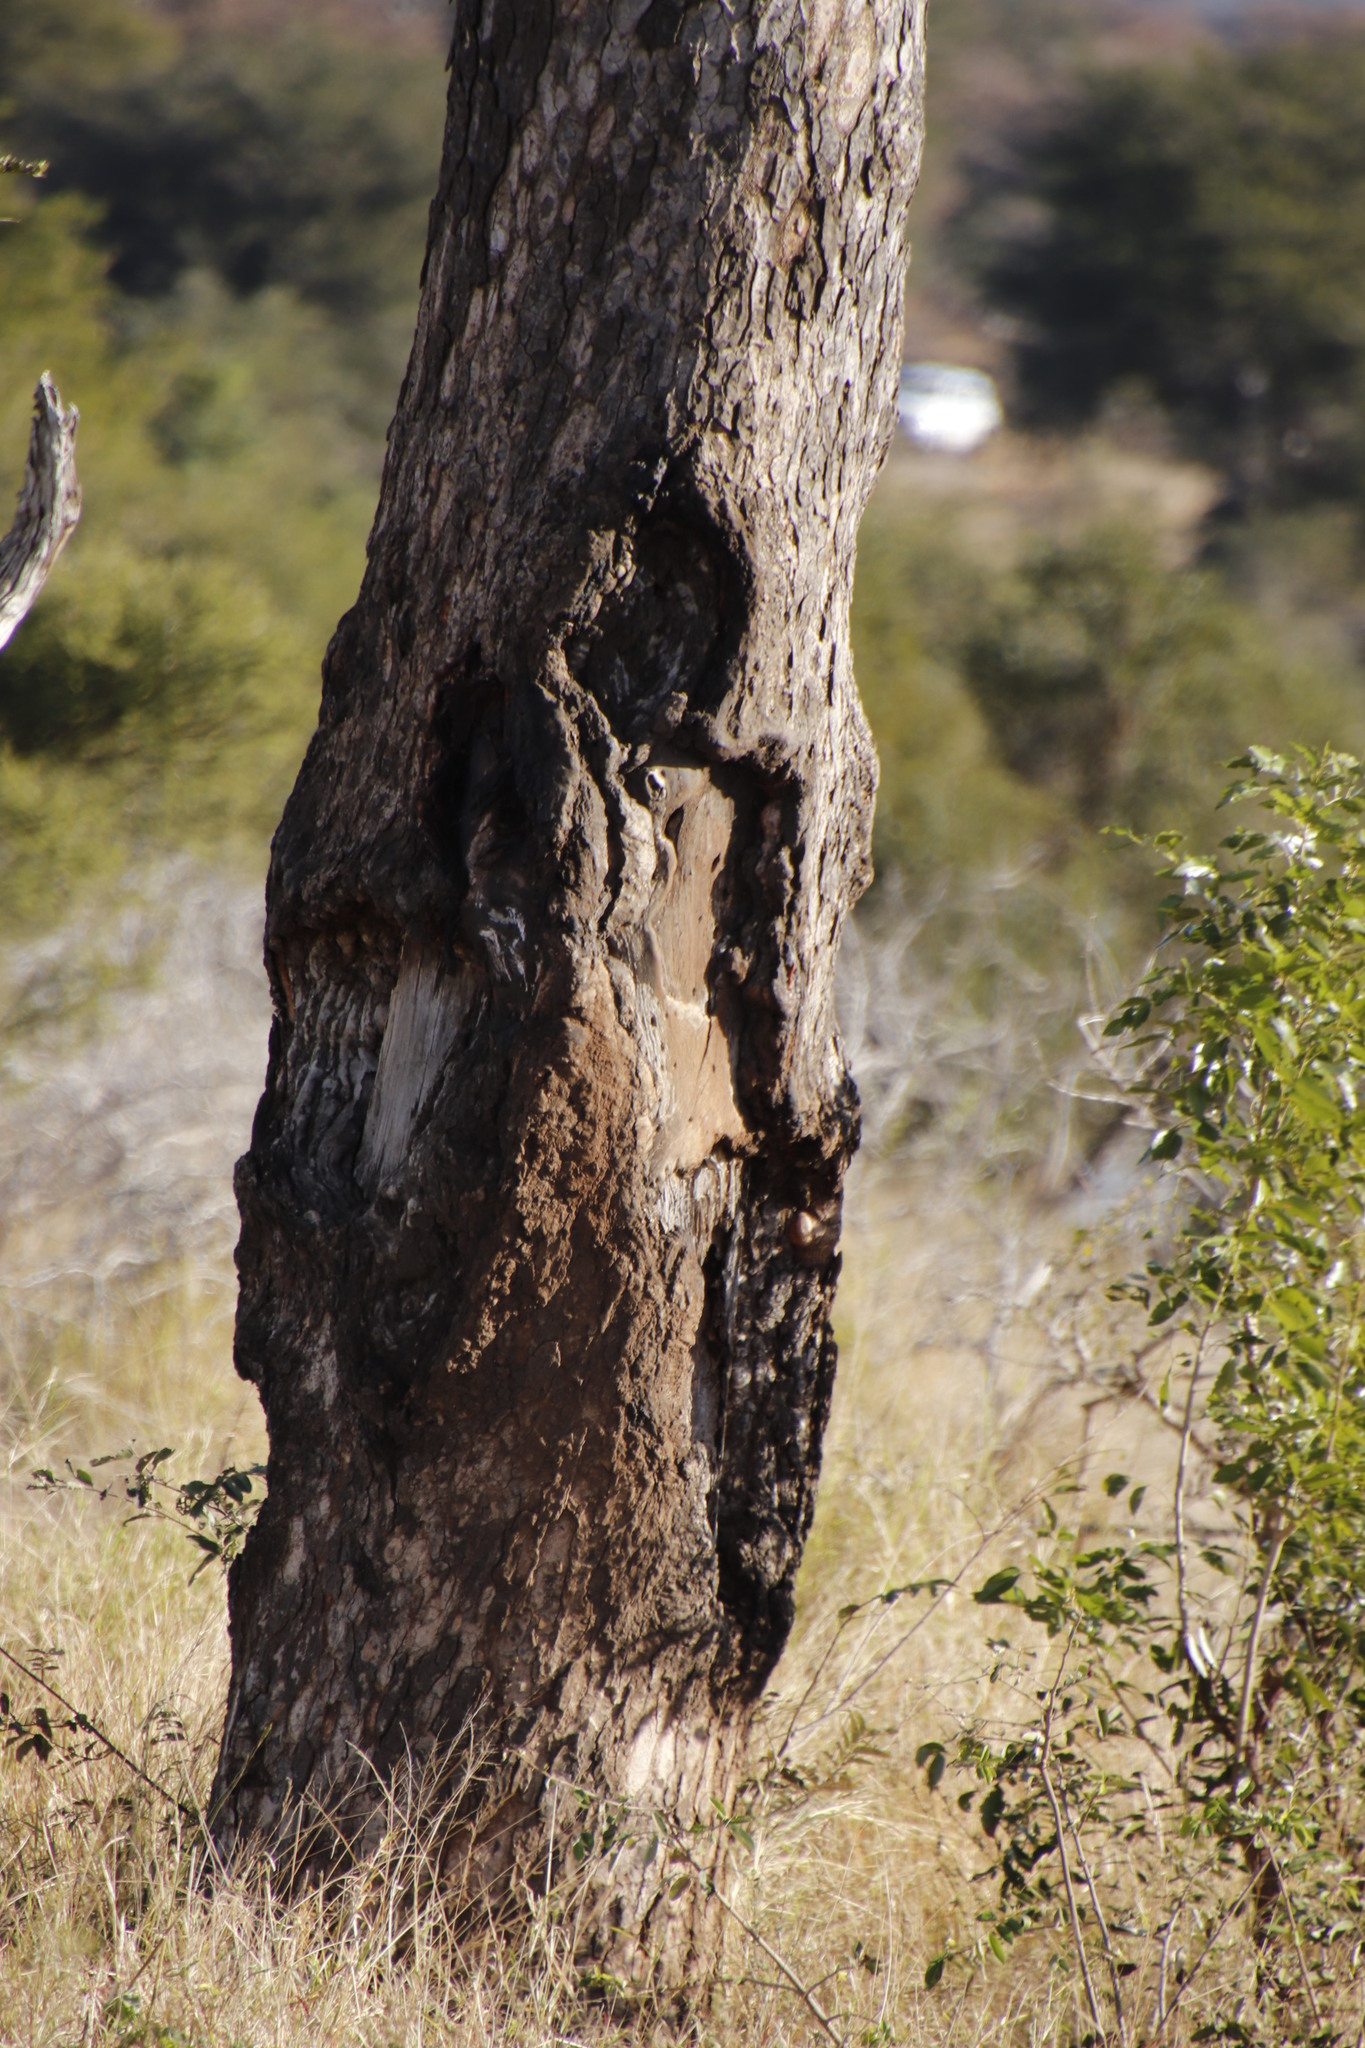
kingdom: Plantae
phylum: Tracheophyta
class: Magnoliopsida
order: Sapindales
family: Anacardiaceae
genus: Sclerocarya
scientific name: Sclerocarya birrea
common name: Marula
